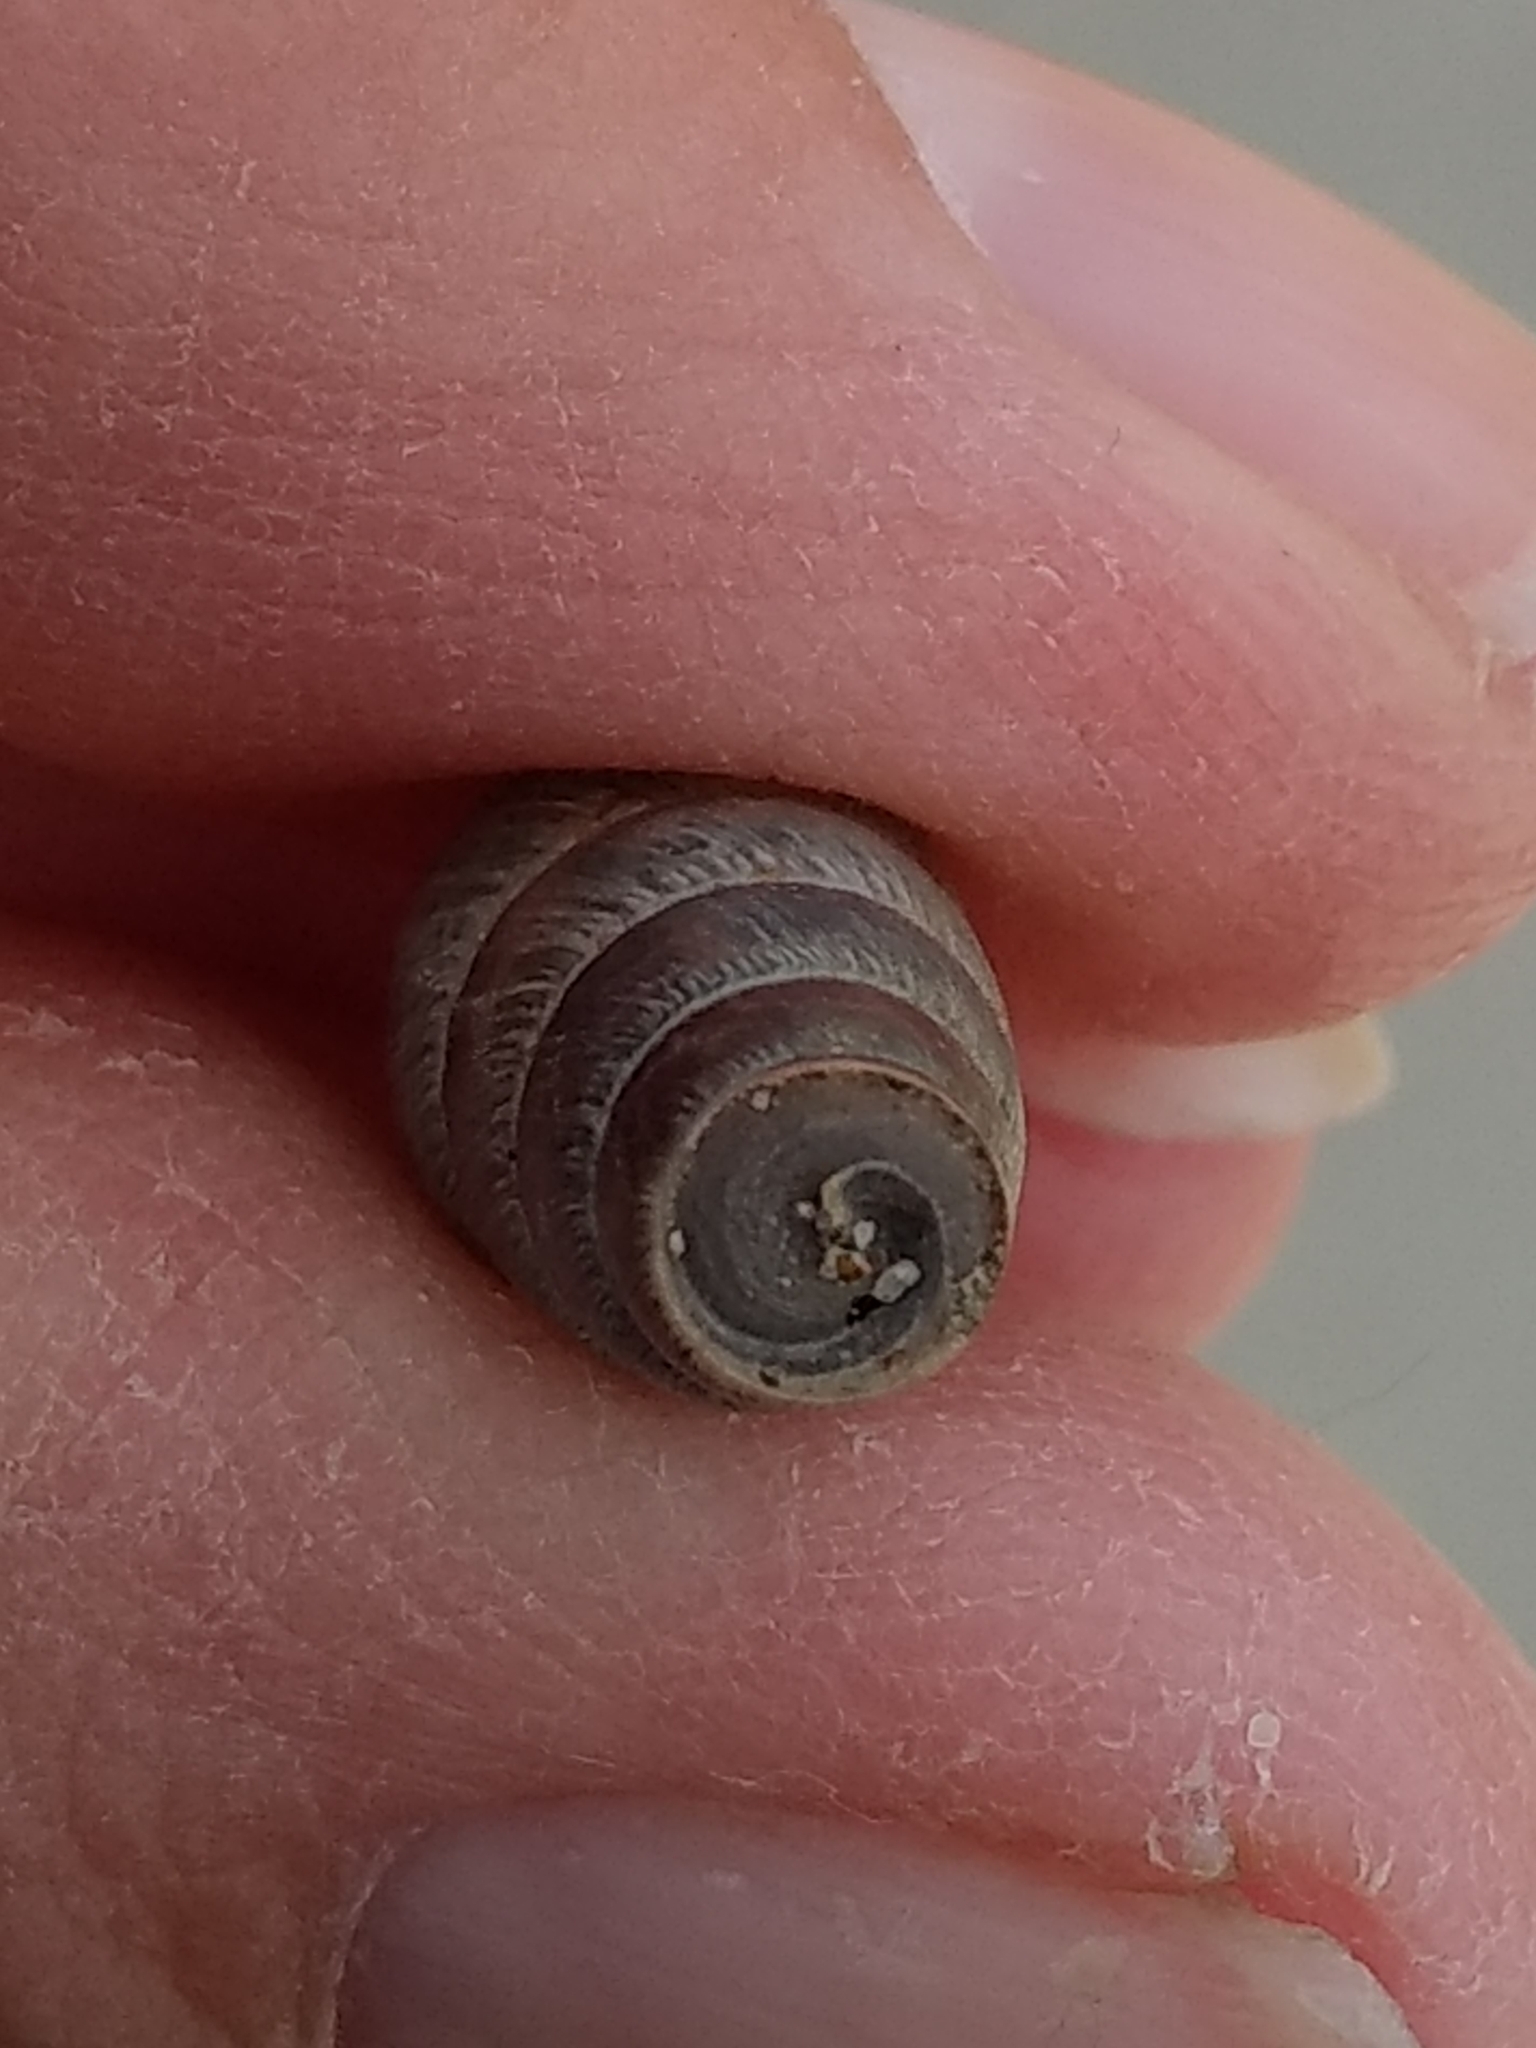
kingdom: Animalia
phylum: Mollusca
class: Gastropoda
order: Stylommatophora
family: Achatinidae
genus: Rumina
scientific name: Rumina decollata
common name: Decollate snail
